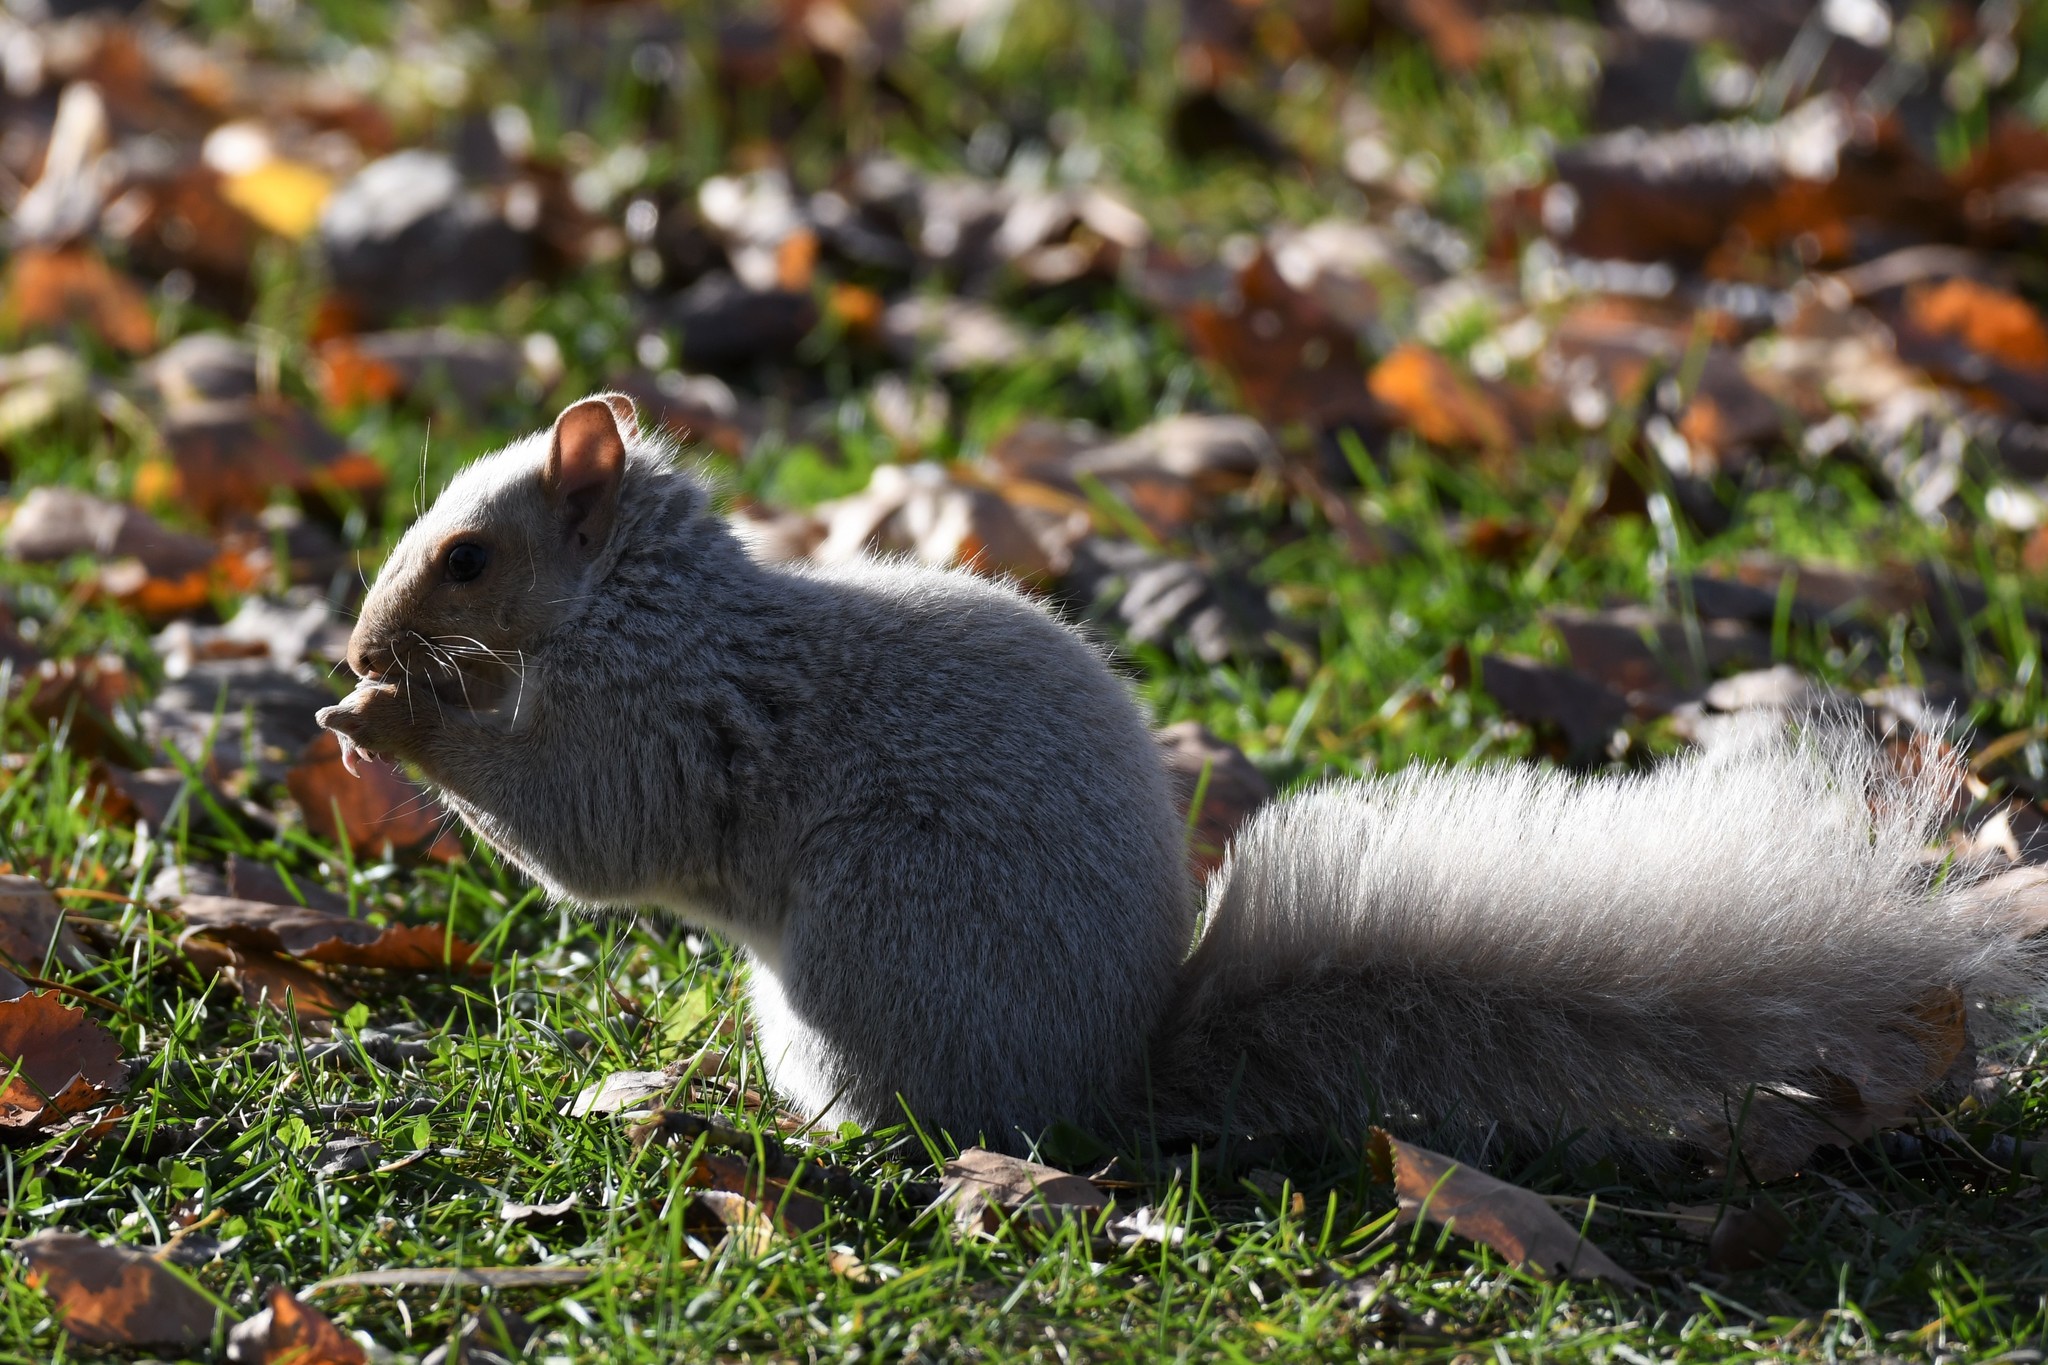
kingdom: Animalia
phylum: Chordata
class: Mammalia
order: Rodentia
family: Sciuridae
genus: Sciurus
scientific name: Sciurus carolinensis
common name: Eastern gray squirrel
